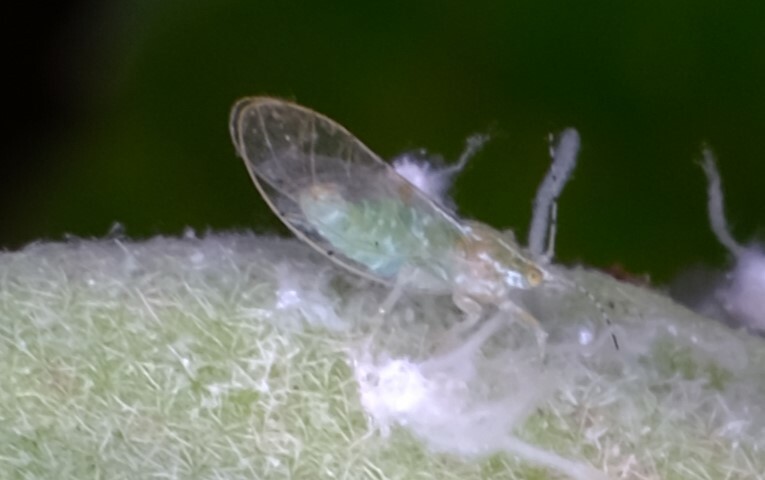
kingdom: Animalia
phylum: Arthropoda
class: Insecta
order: Hemiptera
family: Carsidaridae
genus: Mesohomotoma
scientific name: Mesohomotoma hibisci
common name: Psyllid
